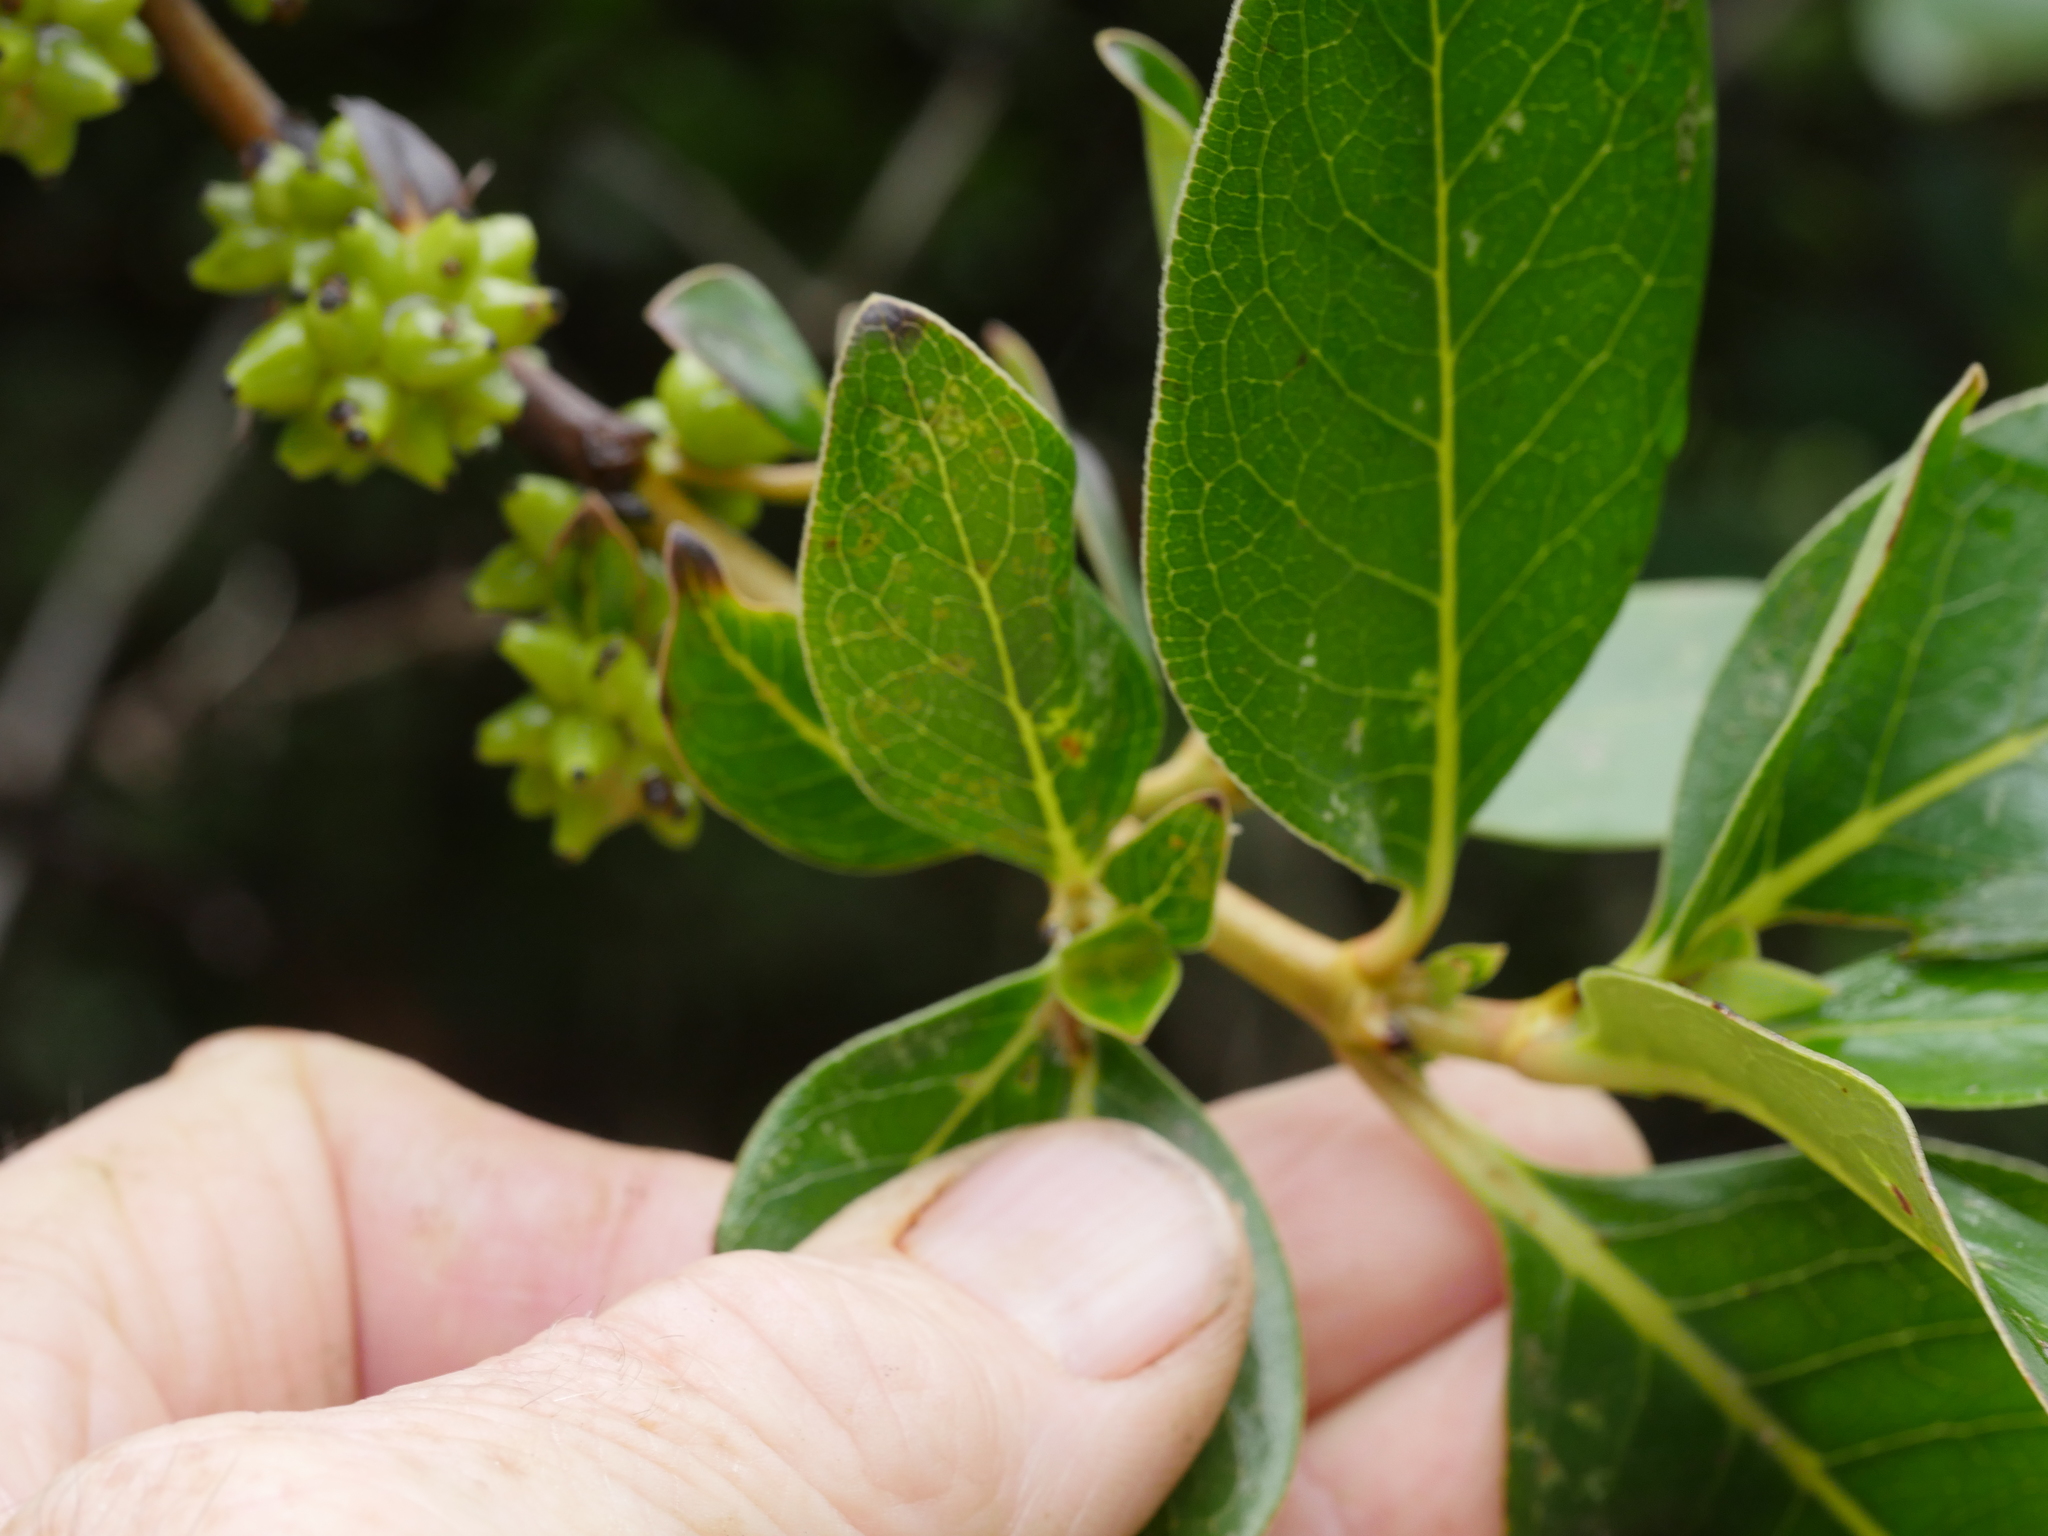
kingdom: Plantae
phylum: Tracheophyta
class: Magnoliopsida
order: Gentianales
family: Rubiaceae
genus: Coprosma
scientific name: Coprosma robusta
